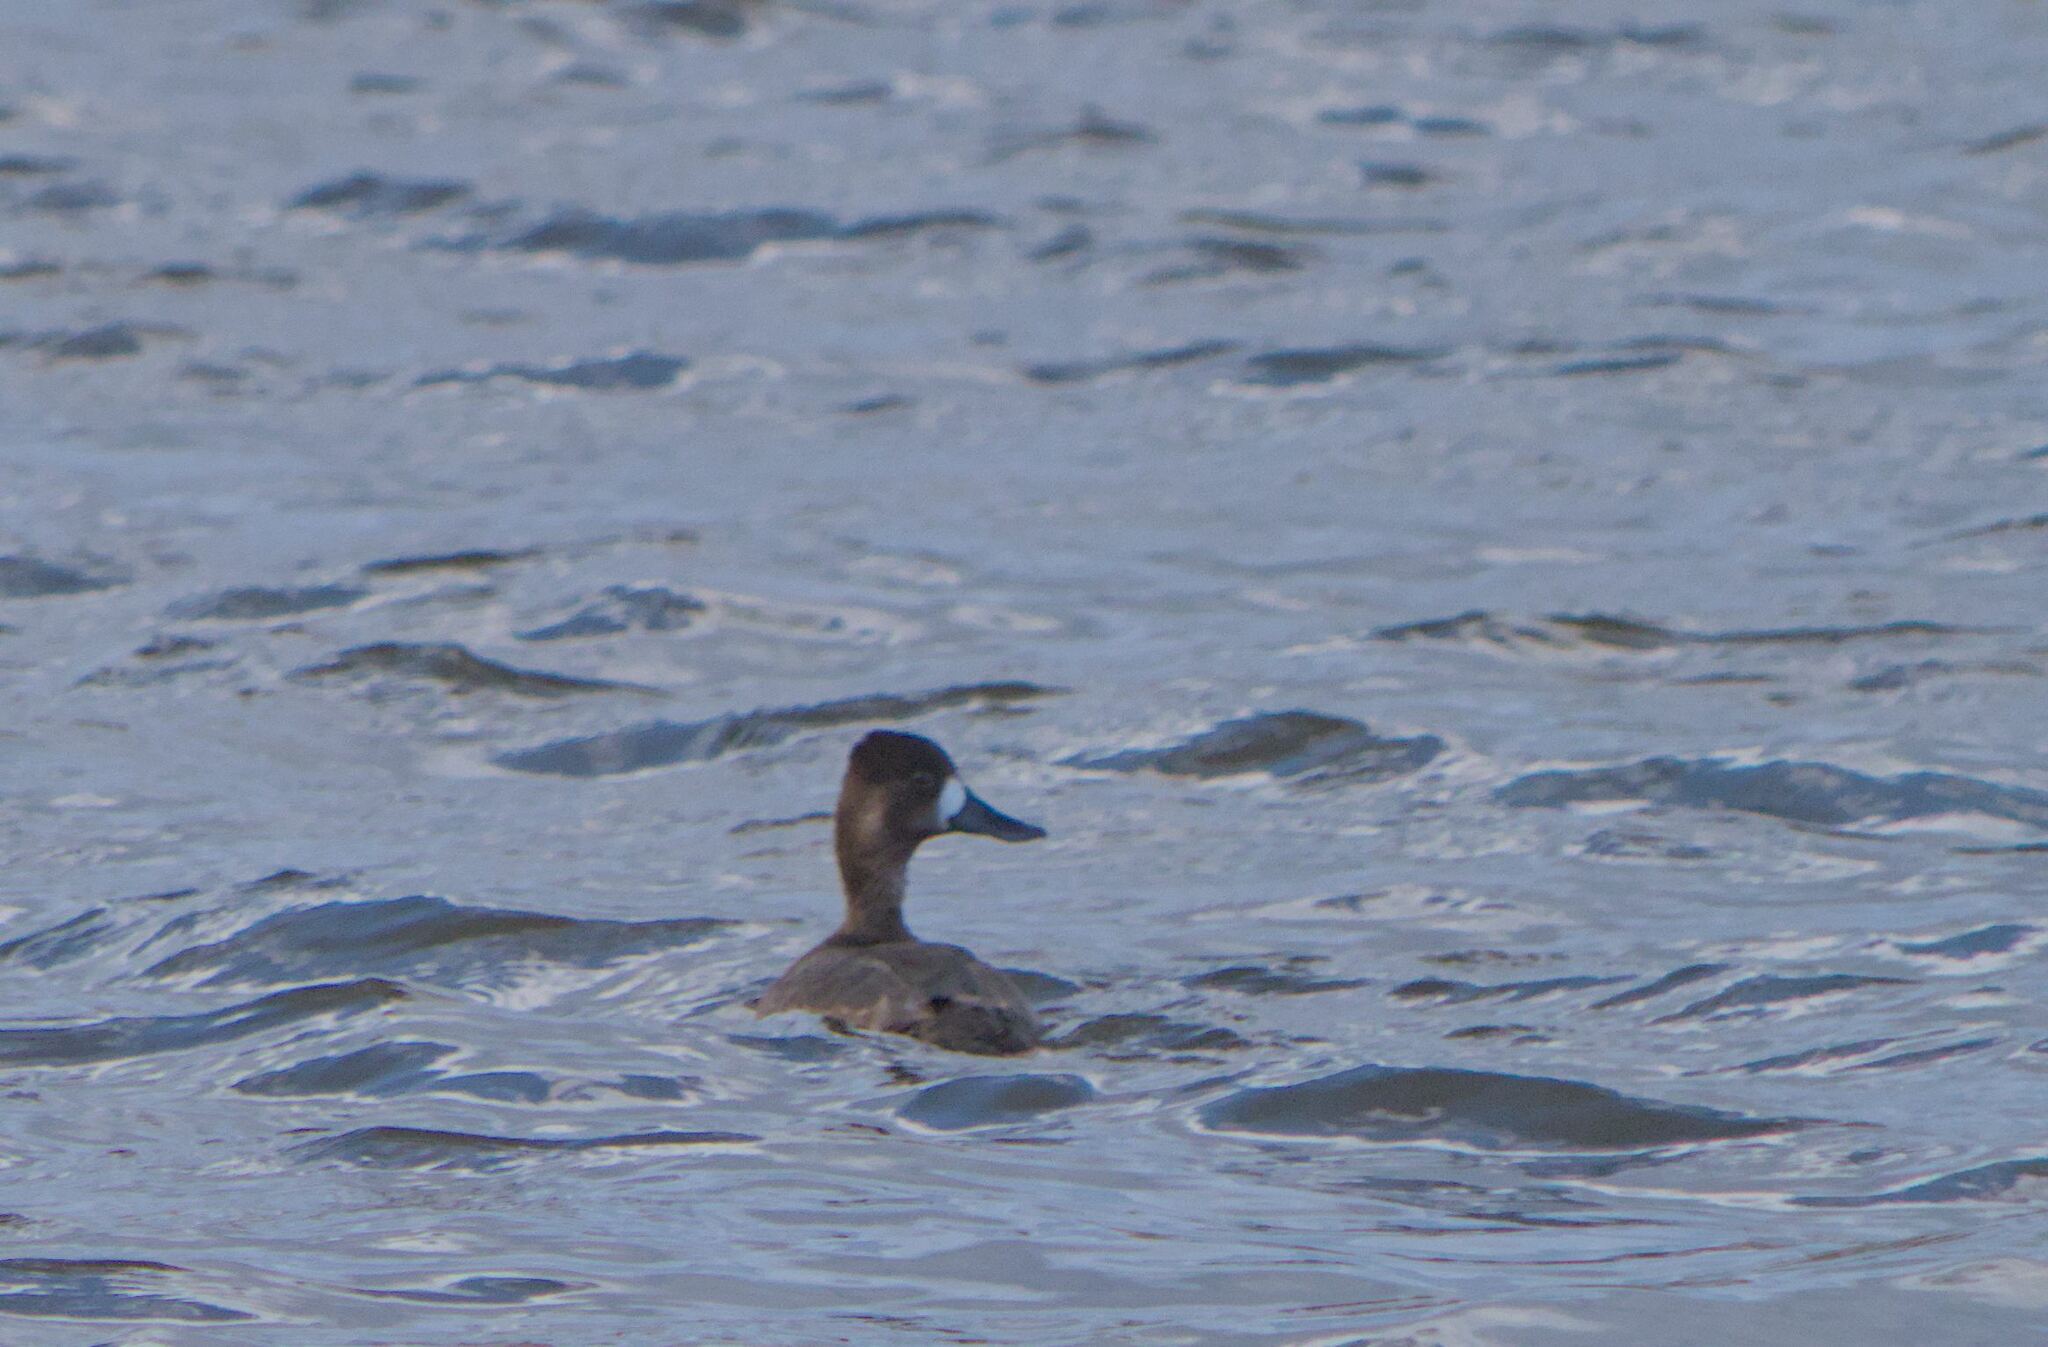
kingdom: Animalia
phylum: Chordata
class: Aves
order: Anseriformes
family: Anatidae
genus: Aythya
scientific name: Aythya collaris
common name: Ring-necked duck
